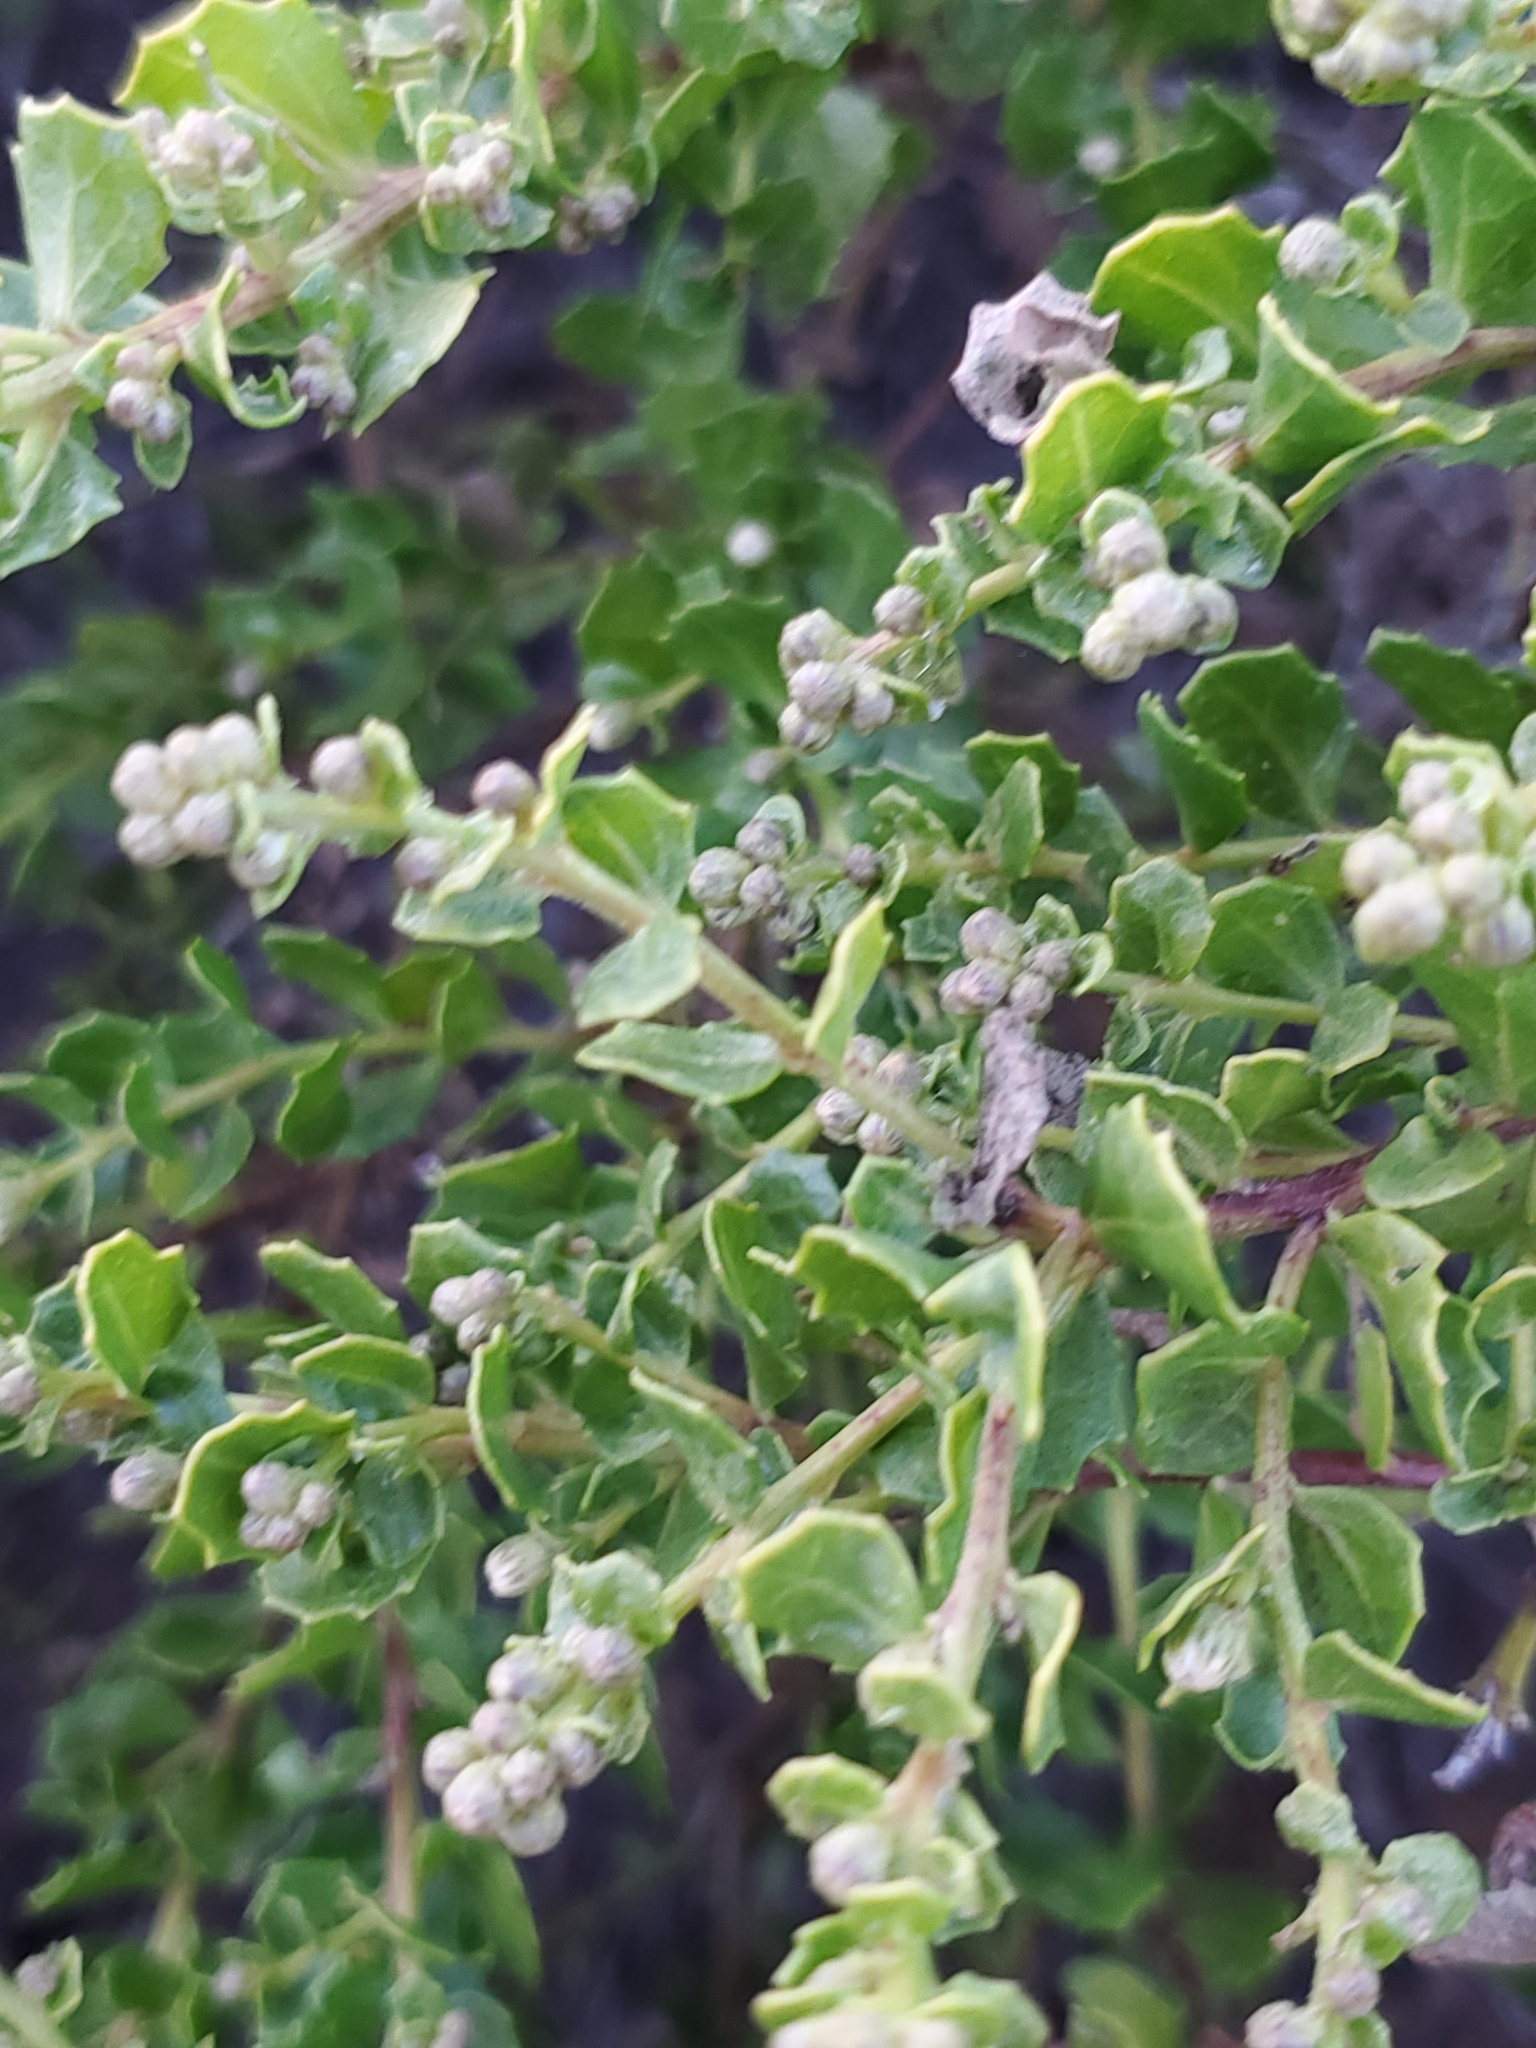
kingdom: Plantae
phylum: Tracheophyta
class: Magnoliopsida
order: Asterales
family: Asteraceae
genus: Baccharis
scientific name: Baccharis pilularis
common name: Coyotebrush
